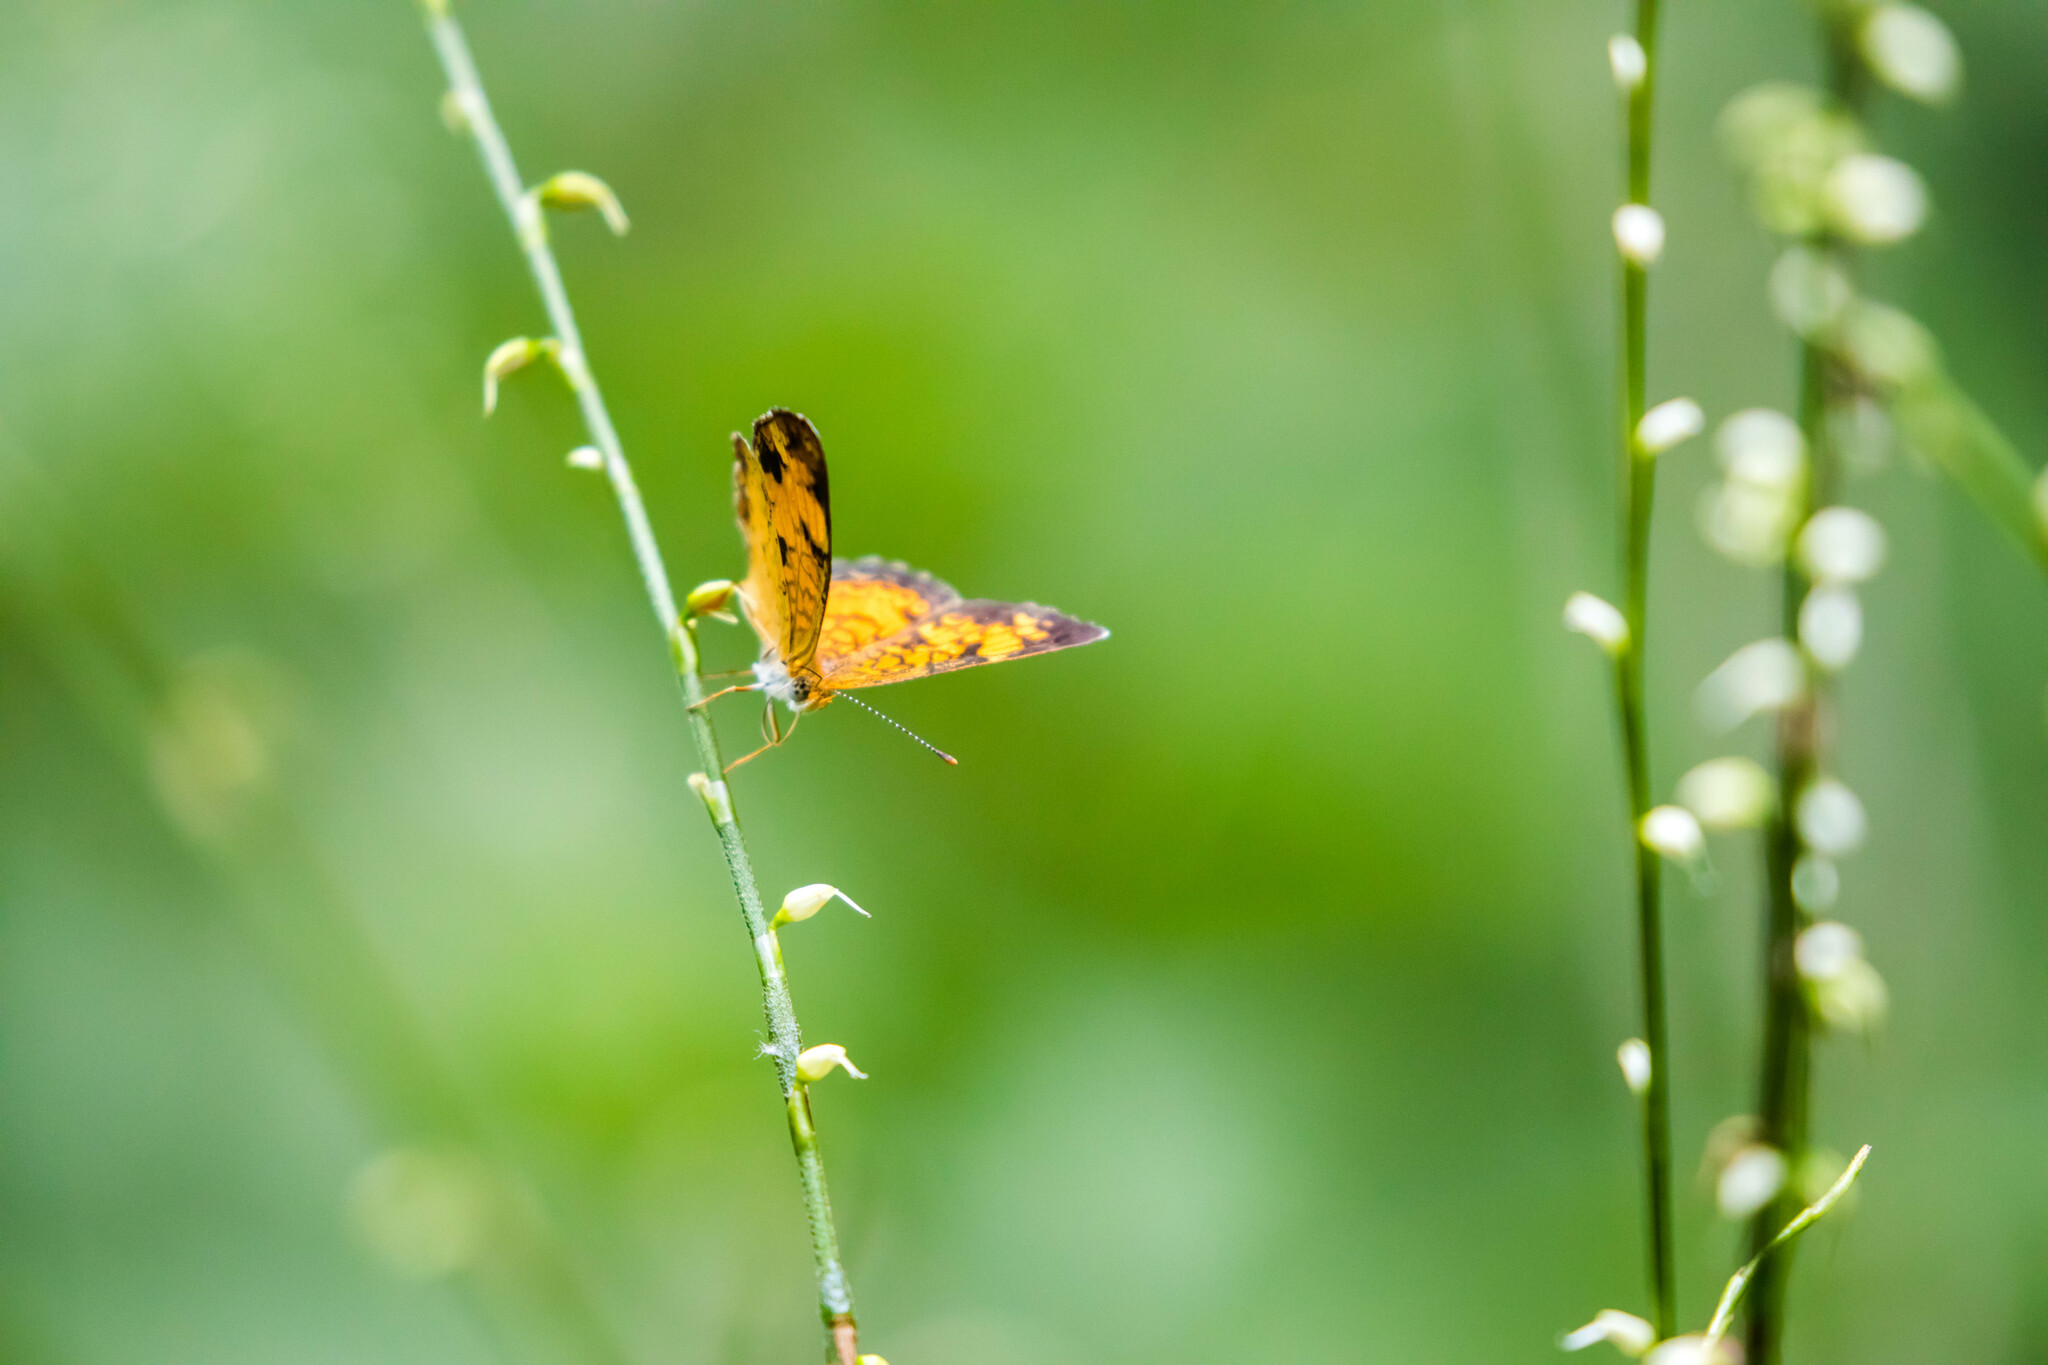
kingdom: Animalia
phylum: Arthropoda
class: Insecta
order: Lepidoptera
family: Nymphalidae
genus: Phyciodes
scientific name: Phyciodes tharos
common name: Pearl crescent
